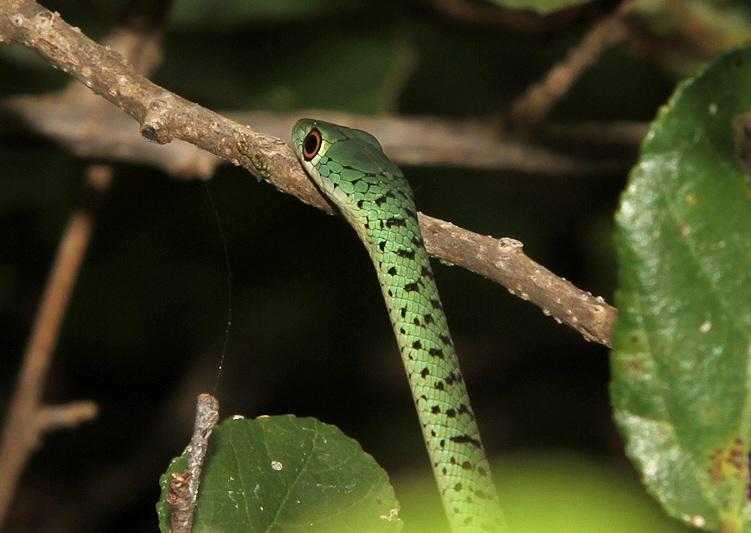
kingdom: Animalia
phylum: Chordata
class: Squamata
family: Colubridae
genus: Philothamnus
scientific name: Philothamnus semivariegatus
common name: Spotted bush snake
